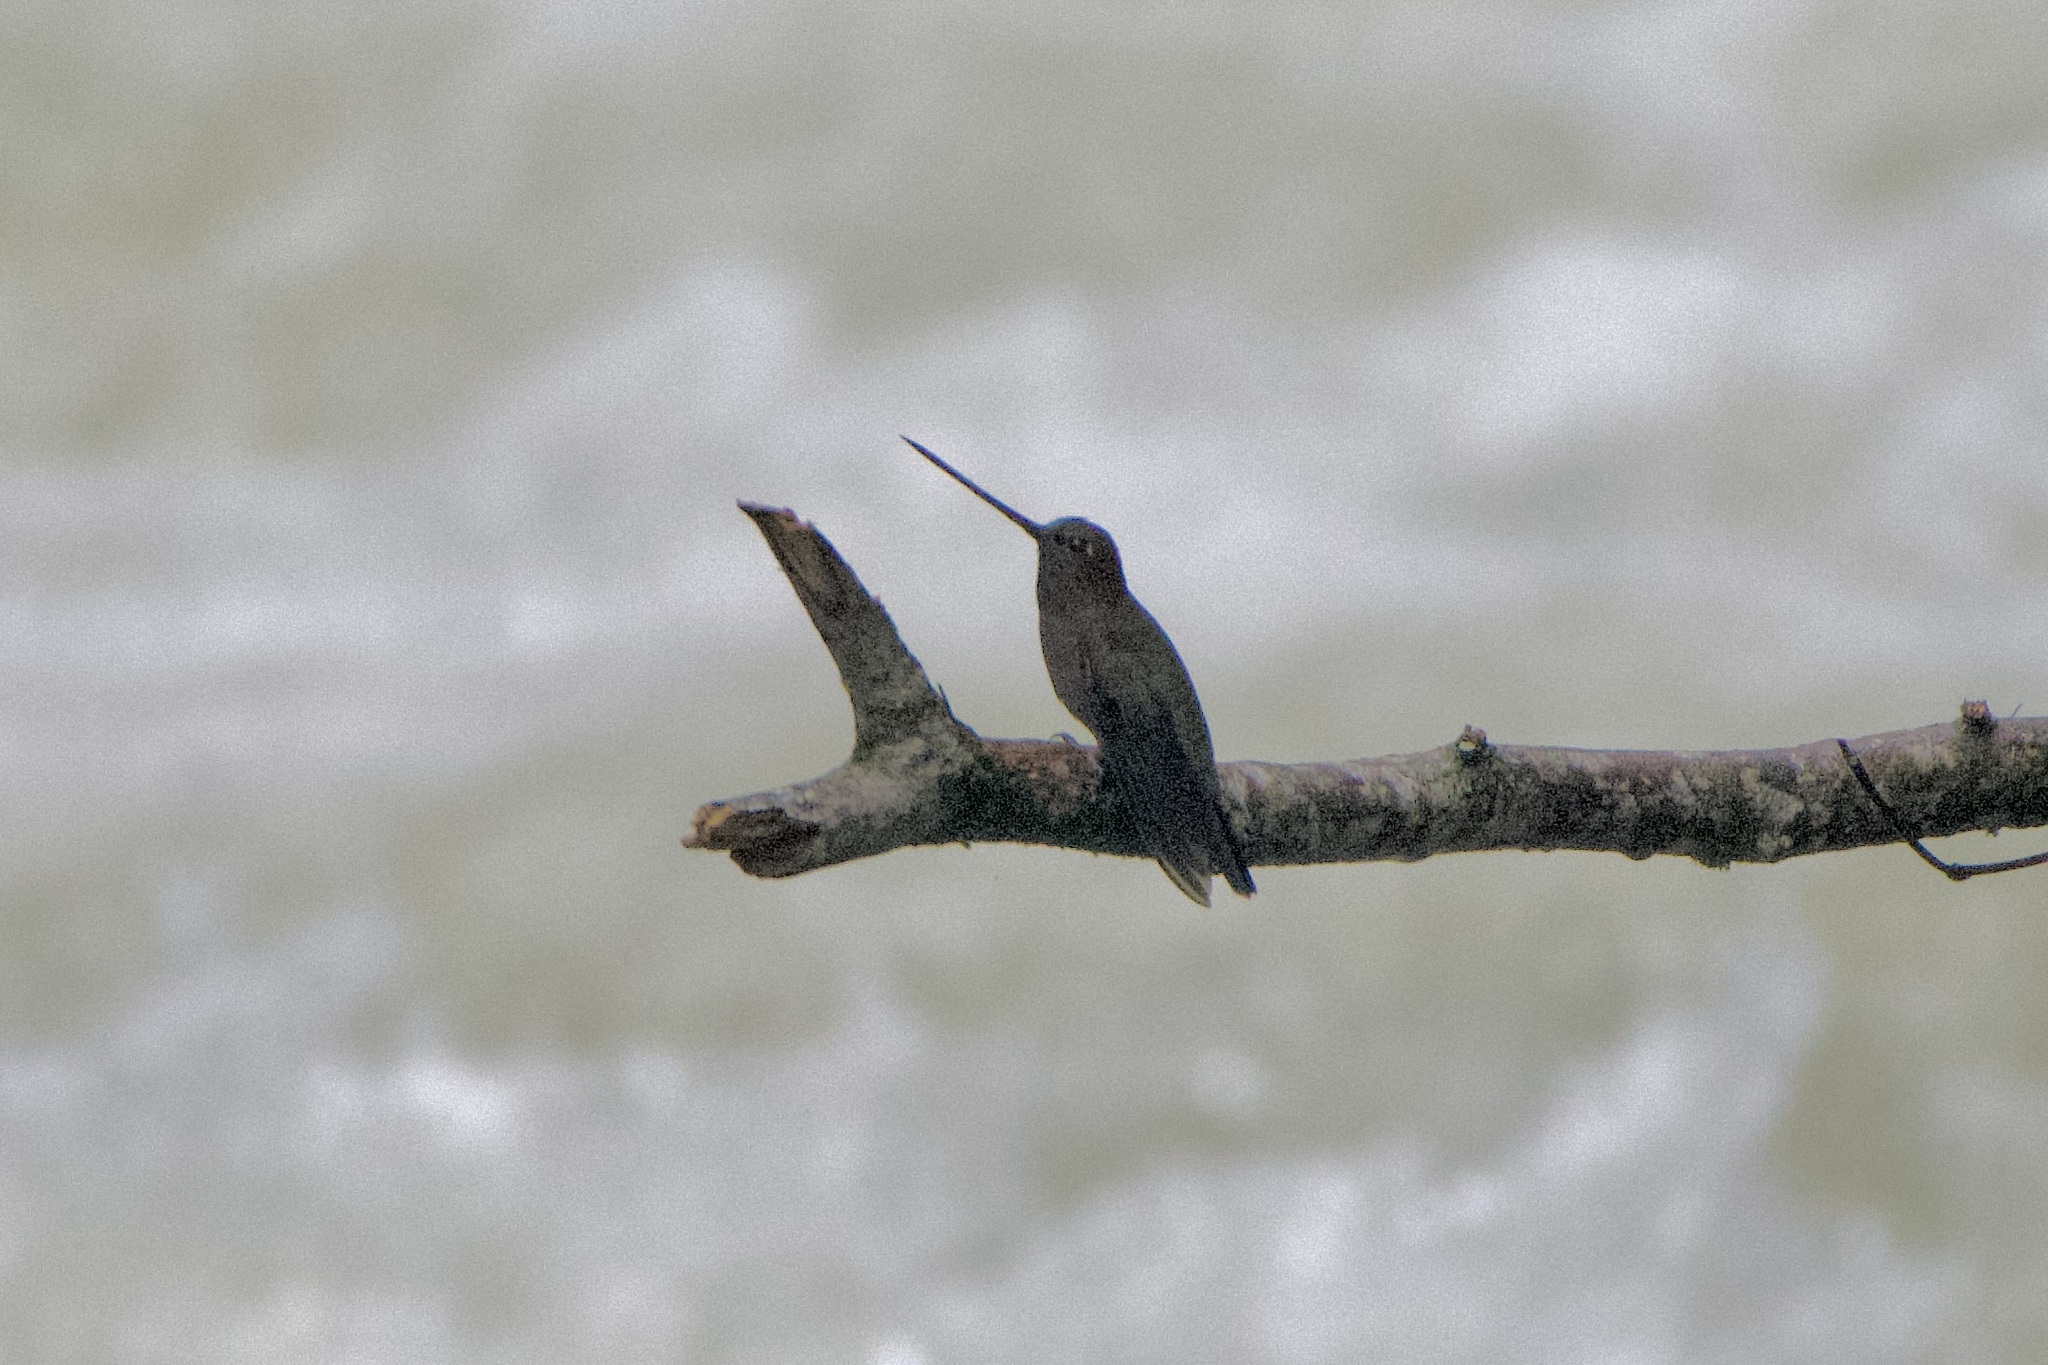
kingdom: Animalia
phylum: Chordata
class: Aves
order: Apodiformes
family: Trochilidae
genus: Doryfera
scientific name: Doryfera ludovicae
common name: Green-fronted lancebill
